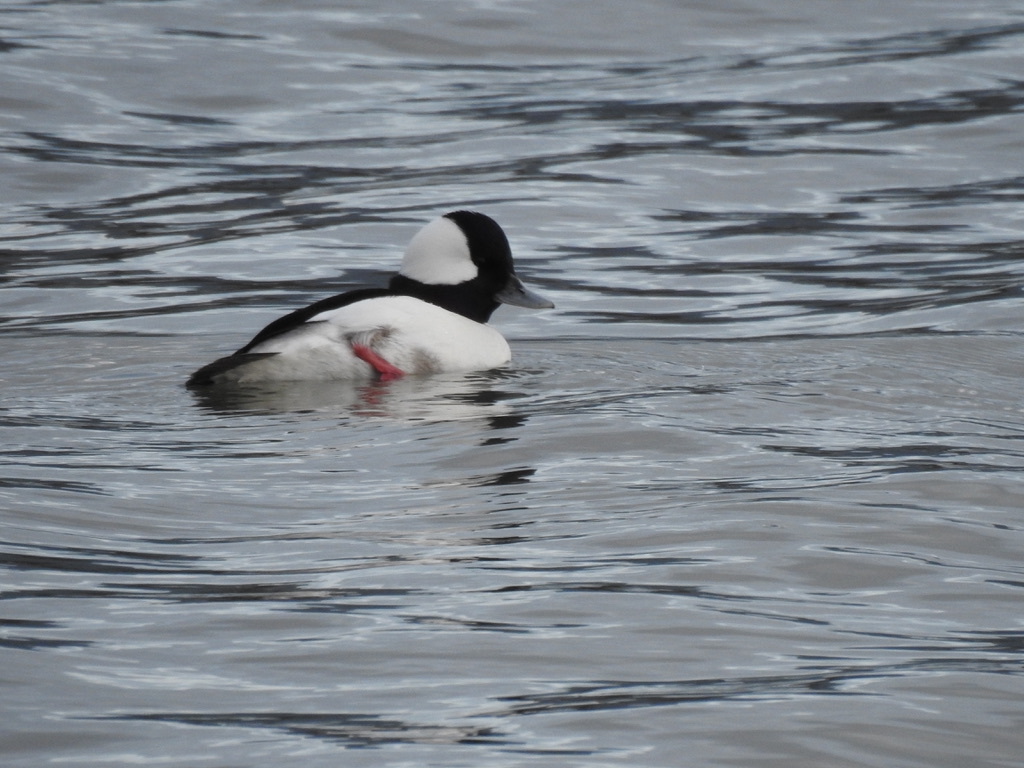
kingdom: Animalia
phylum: Chordata
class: Aves
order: Anseriformes
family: Anatidae
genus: Bucephala
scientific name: Bucephala albeola
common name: Bufflehead
